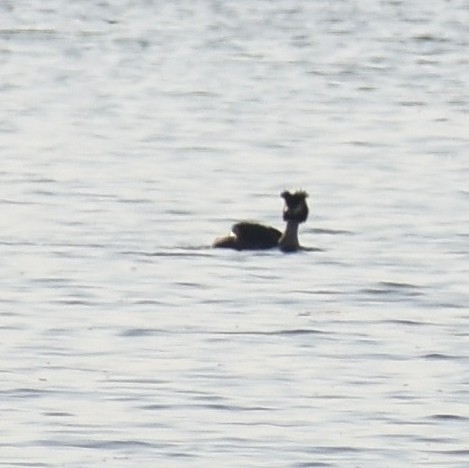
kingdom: Animalia
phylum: Chordata
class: Aves
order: Podicipediformes
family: Podicipedidae
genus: Podiceps
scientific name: Podiceps cristatus
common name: Great crested grebe
